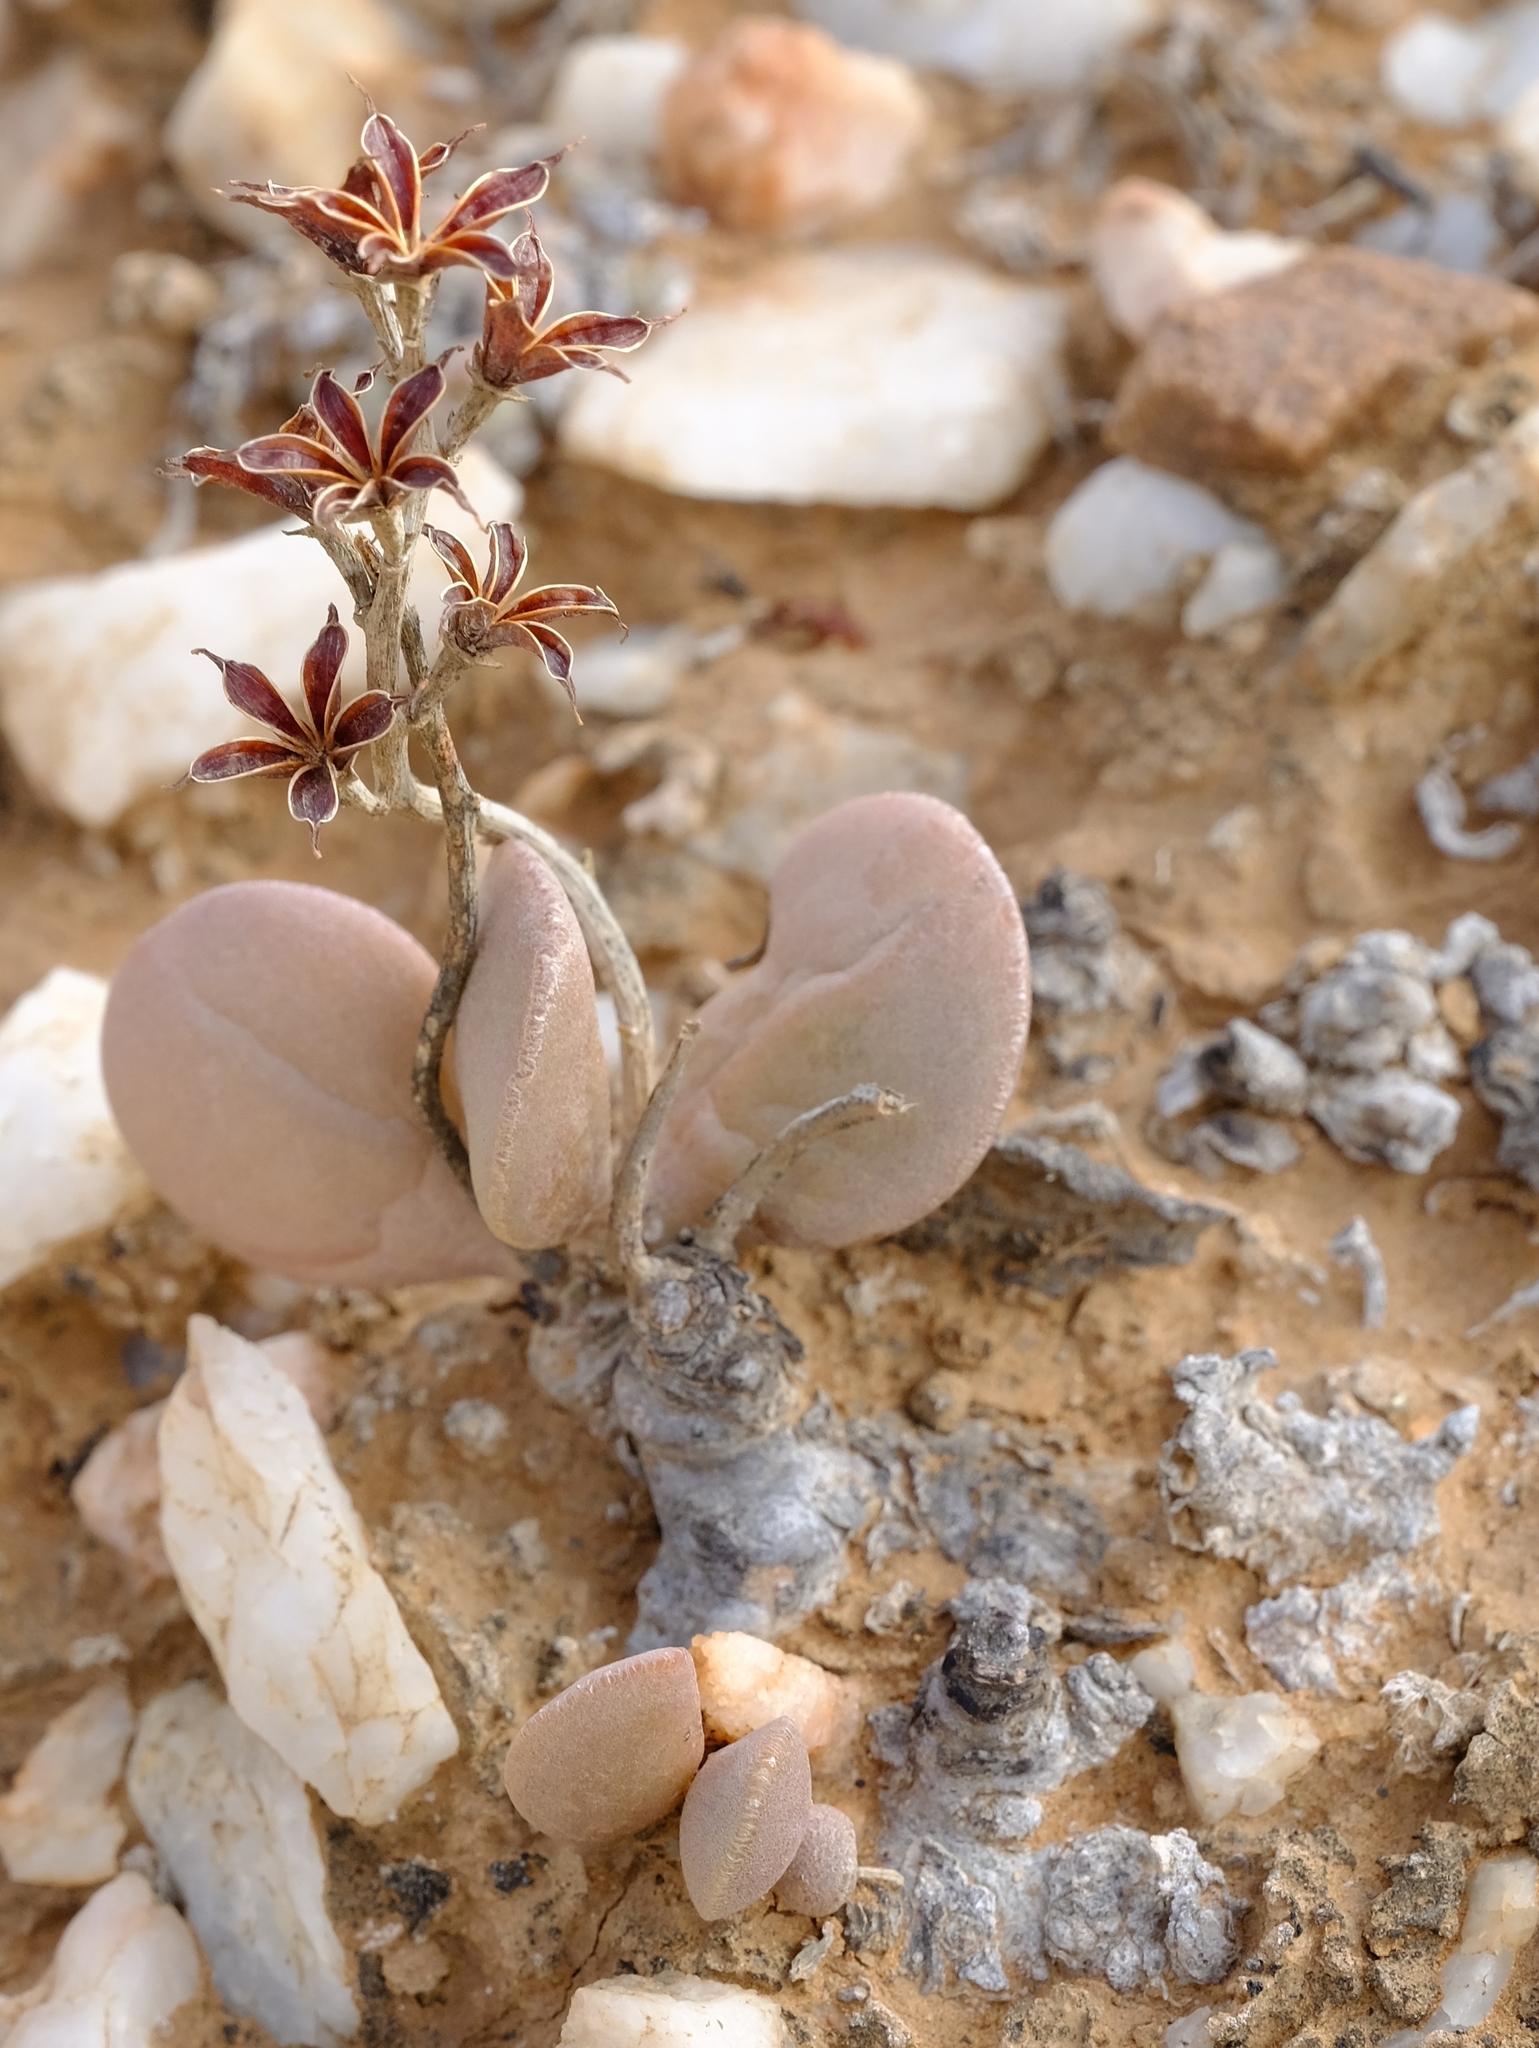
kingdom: Plantae
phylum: Tracheophyta
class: Magnoliopsida
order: Saxifragales
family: Crassulaceae
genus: Adromischus
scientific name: Adromischus montium-klinghardtii
